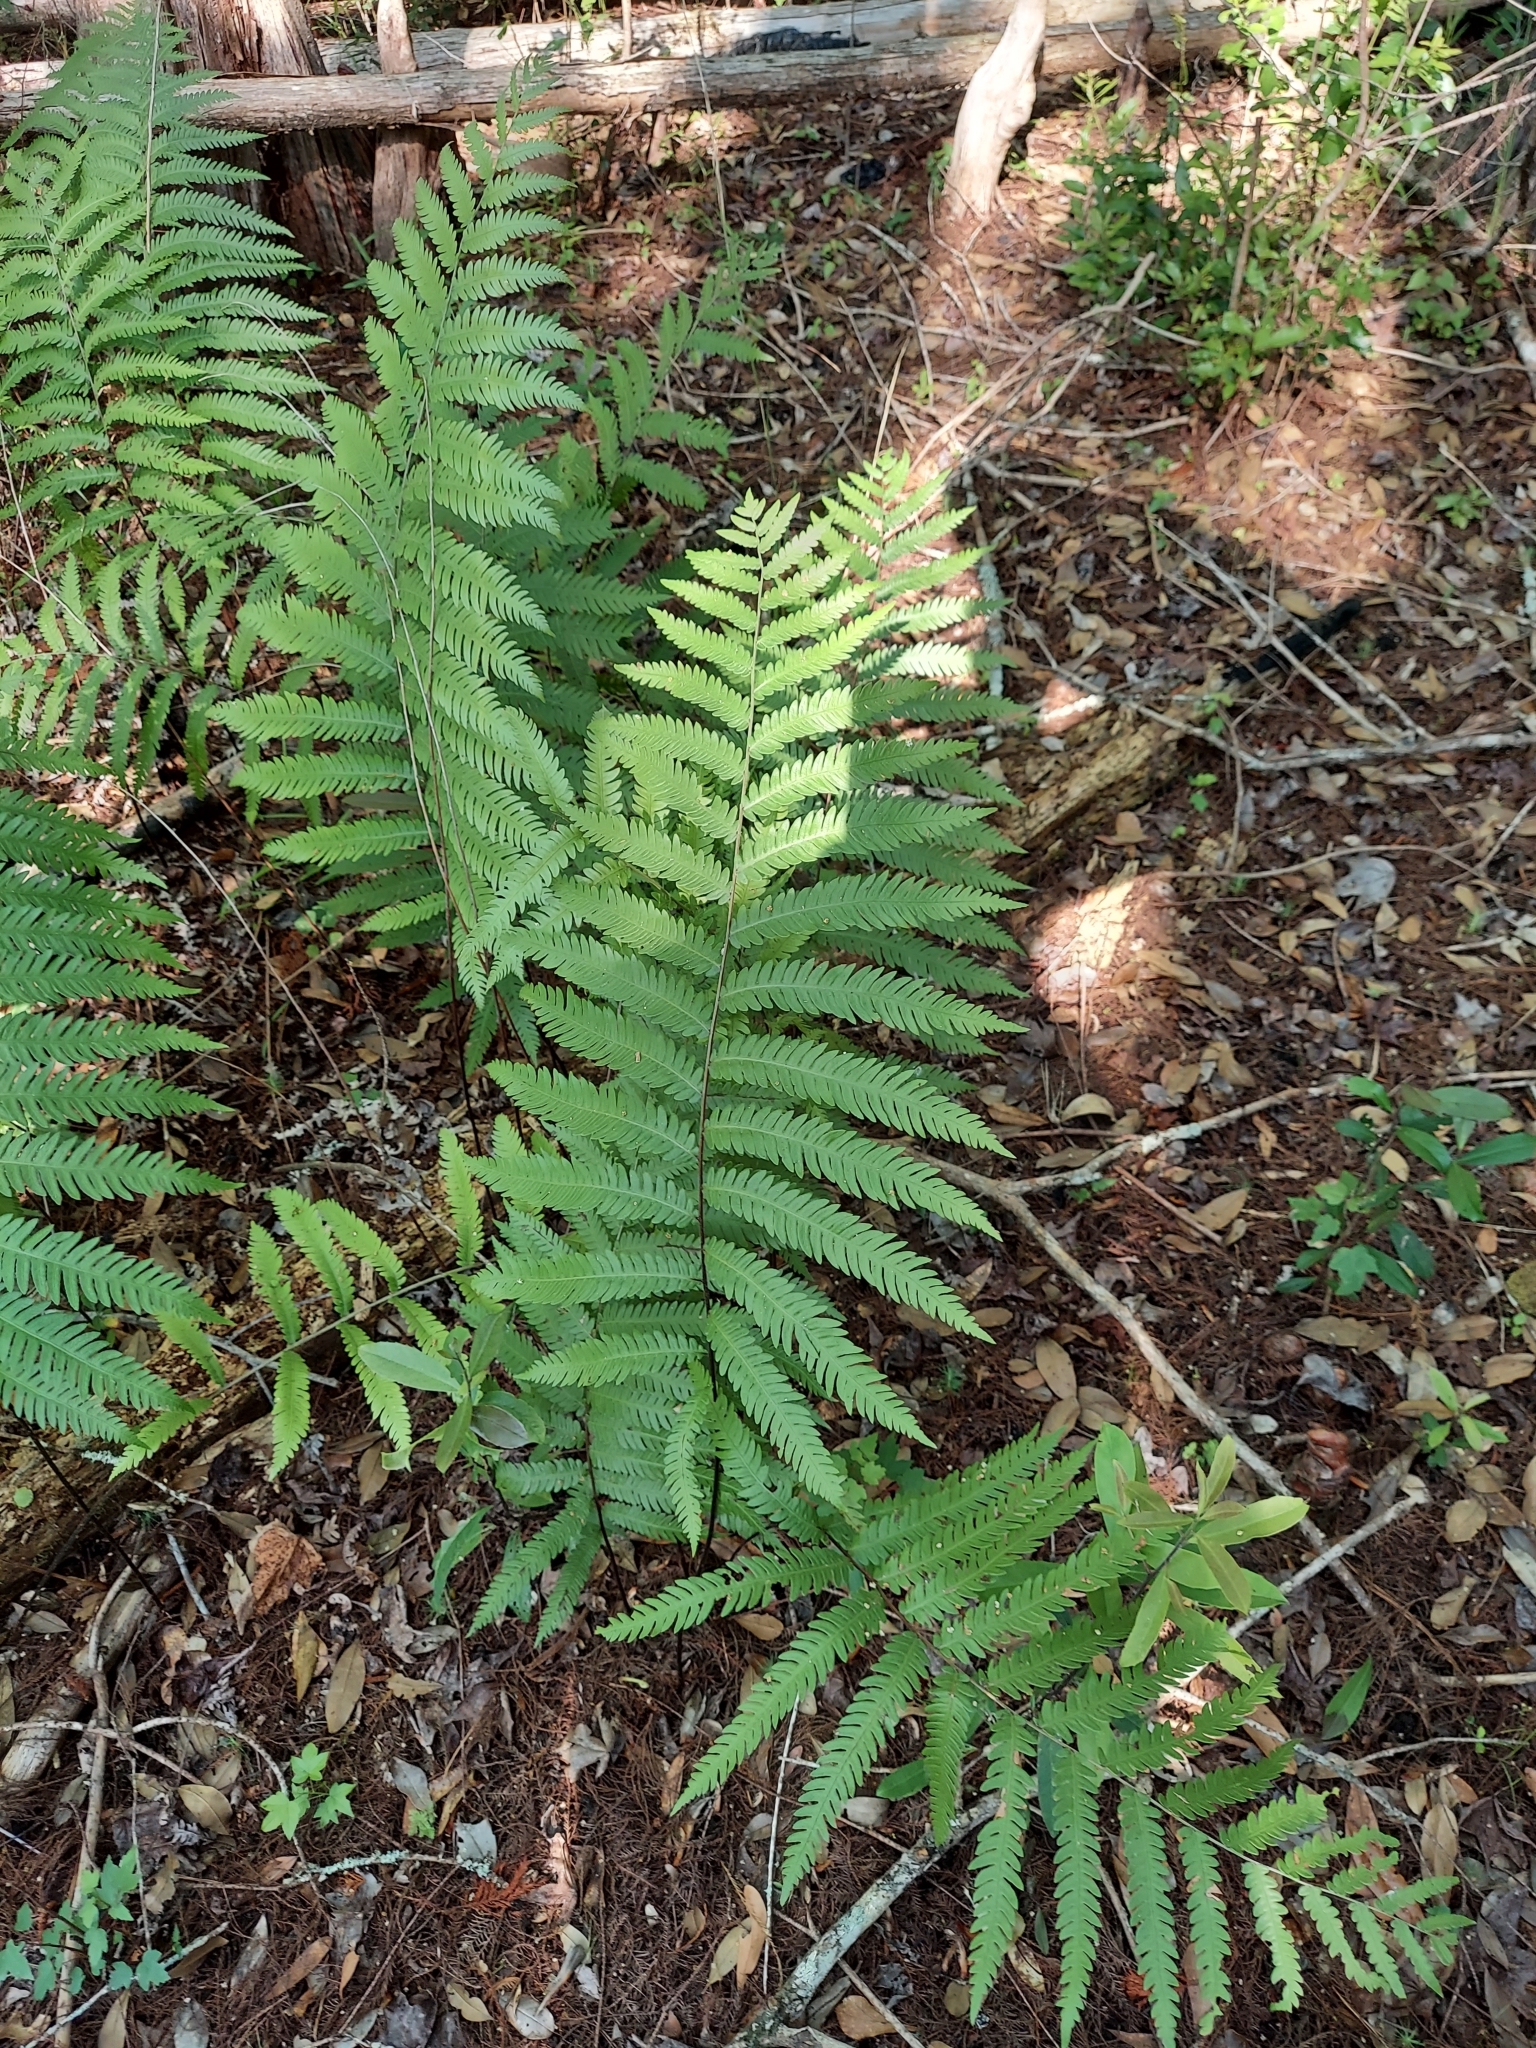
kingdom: Plantae
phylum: Tracheophyta
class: Polypodiopsida
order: Polypodiales
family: Blechnaceae
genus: Anchistea
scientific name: Anchistea virginica
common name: Virginia chain fern
